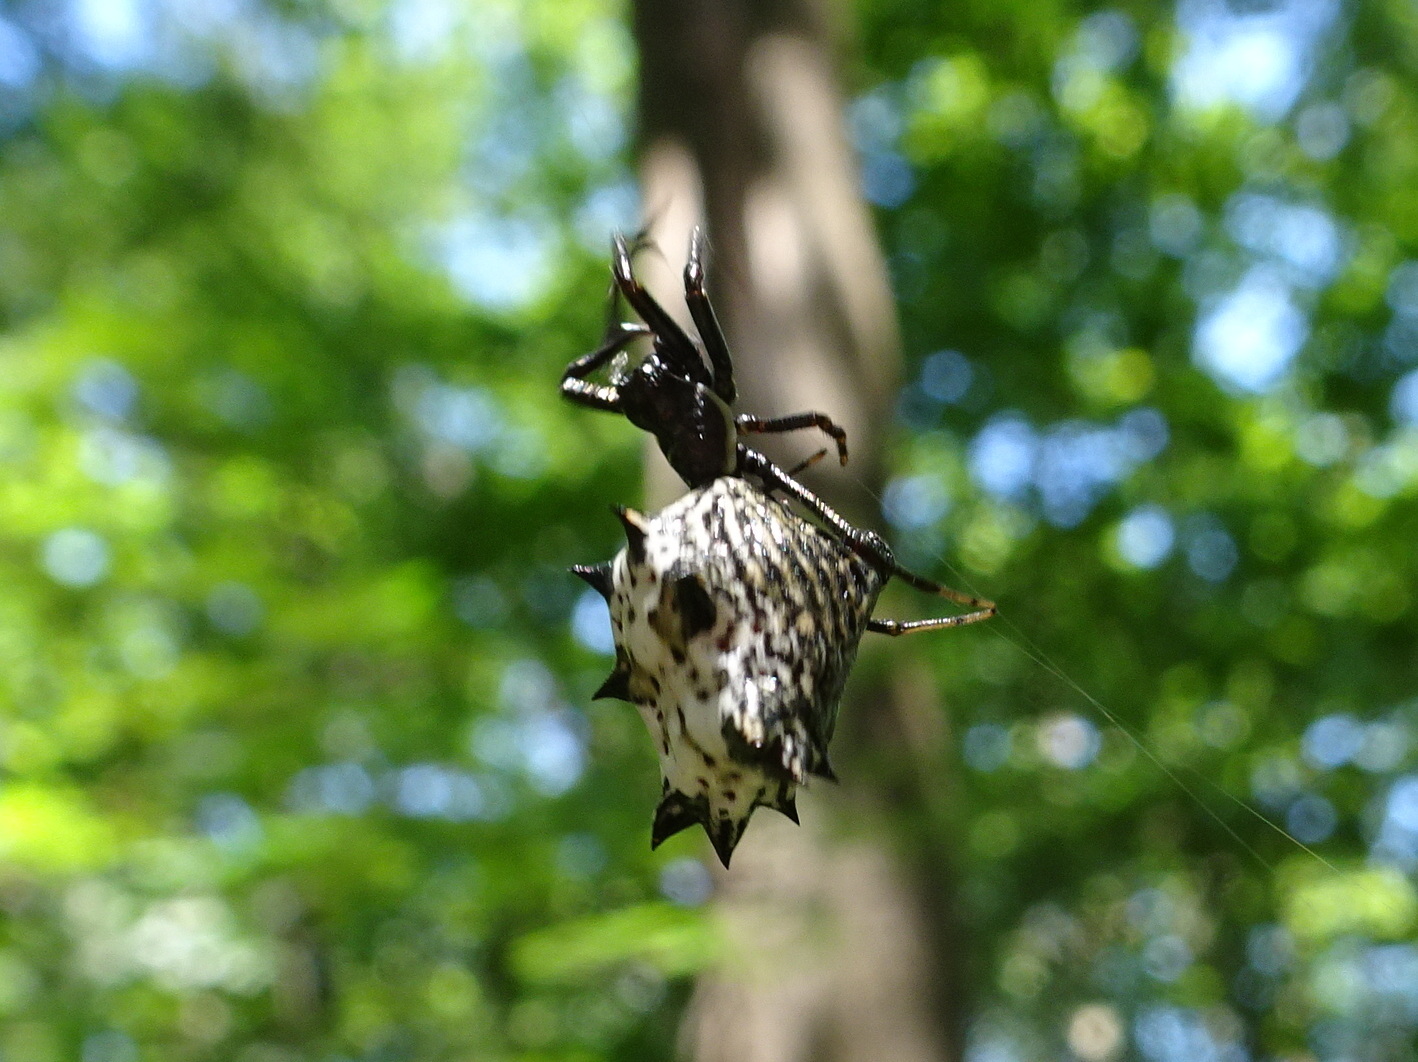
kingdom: Animalia
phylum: Arthropoda
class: Arachnida
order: Araneae
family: Araneidae
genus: Micrathena
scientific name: Micrathena gracilis
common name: Orb weavers
